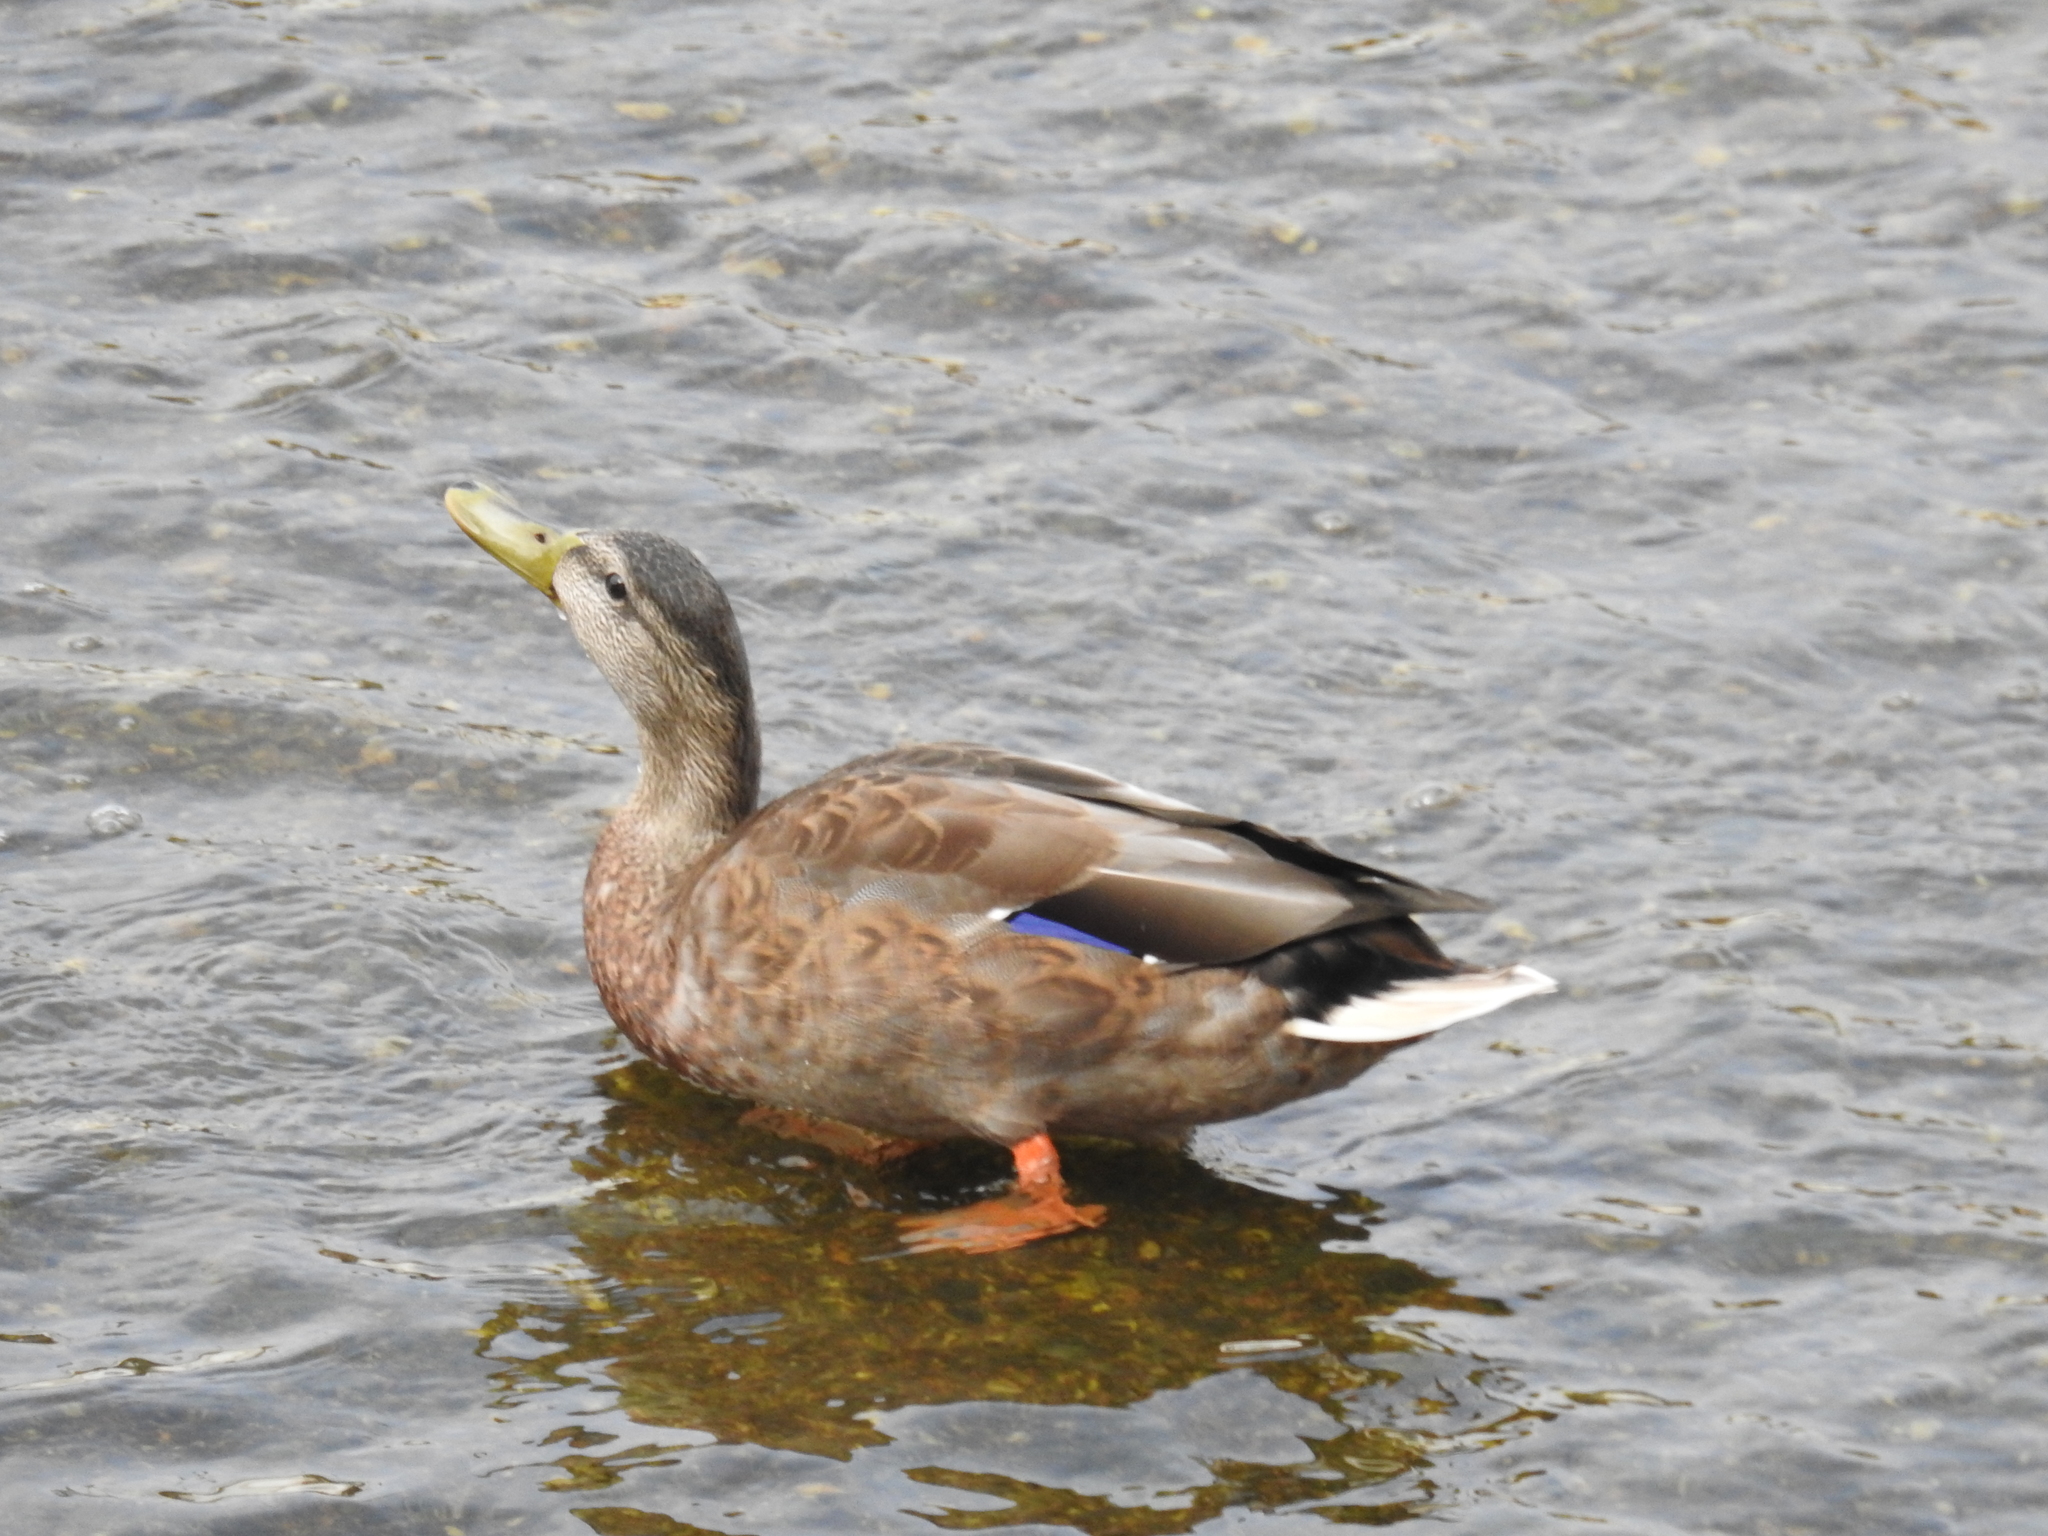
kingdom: Animalia
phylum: Chordata
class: Aves
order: Anseriformes
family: Anatidae
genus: Anas
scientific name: Anas platyrhynchos
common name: Mallard
